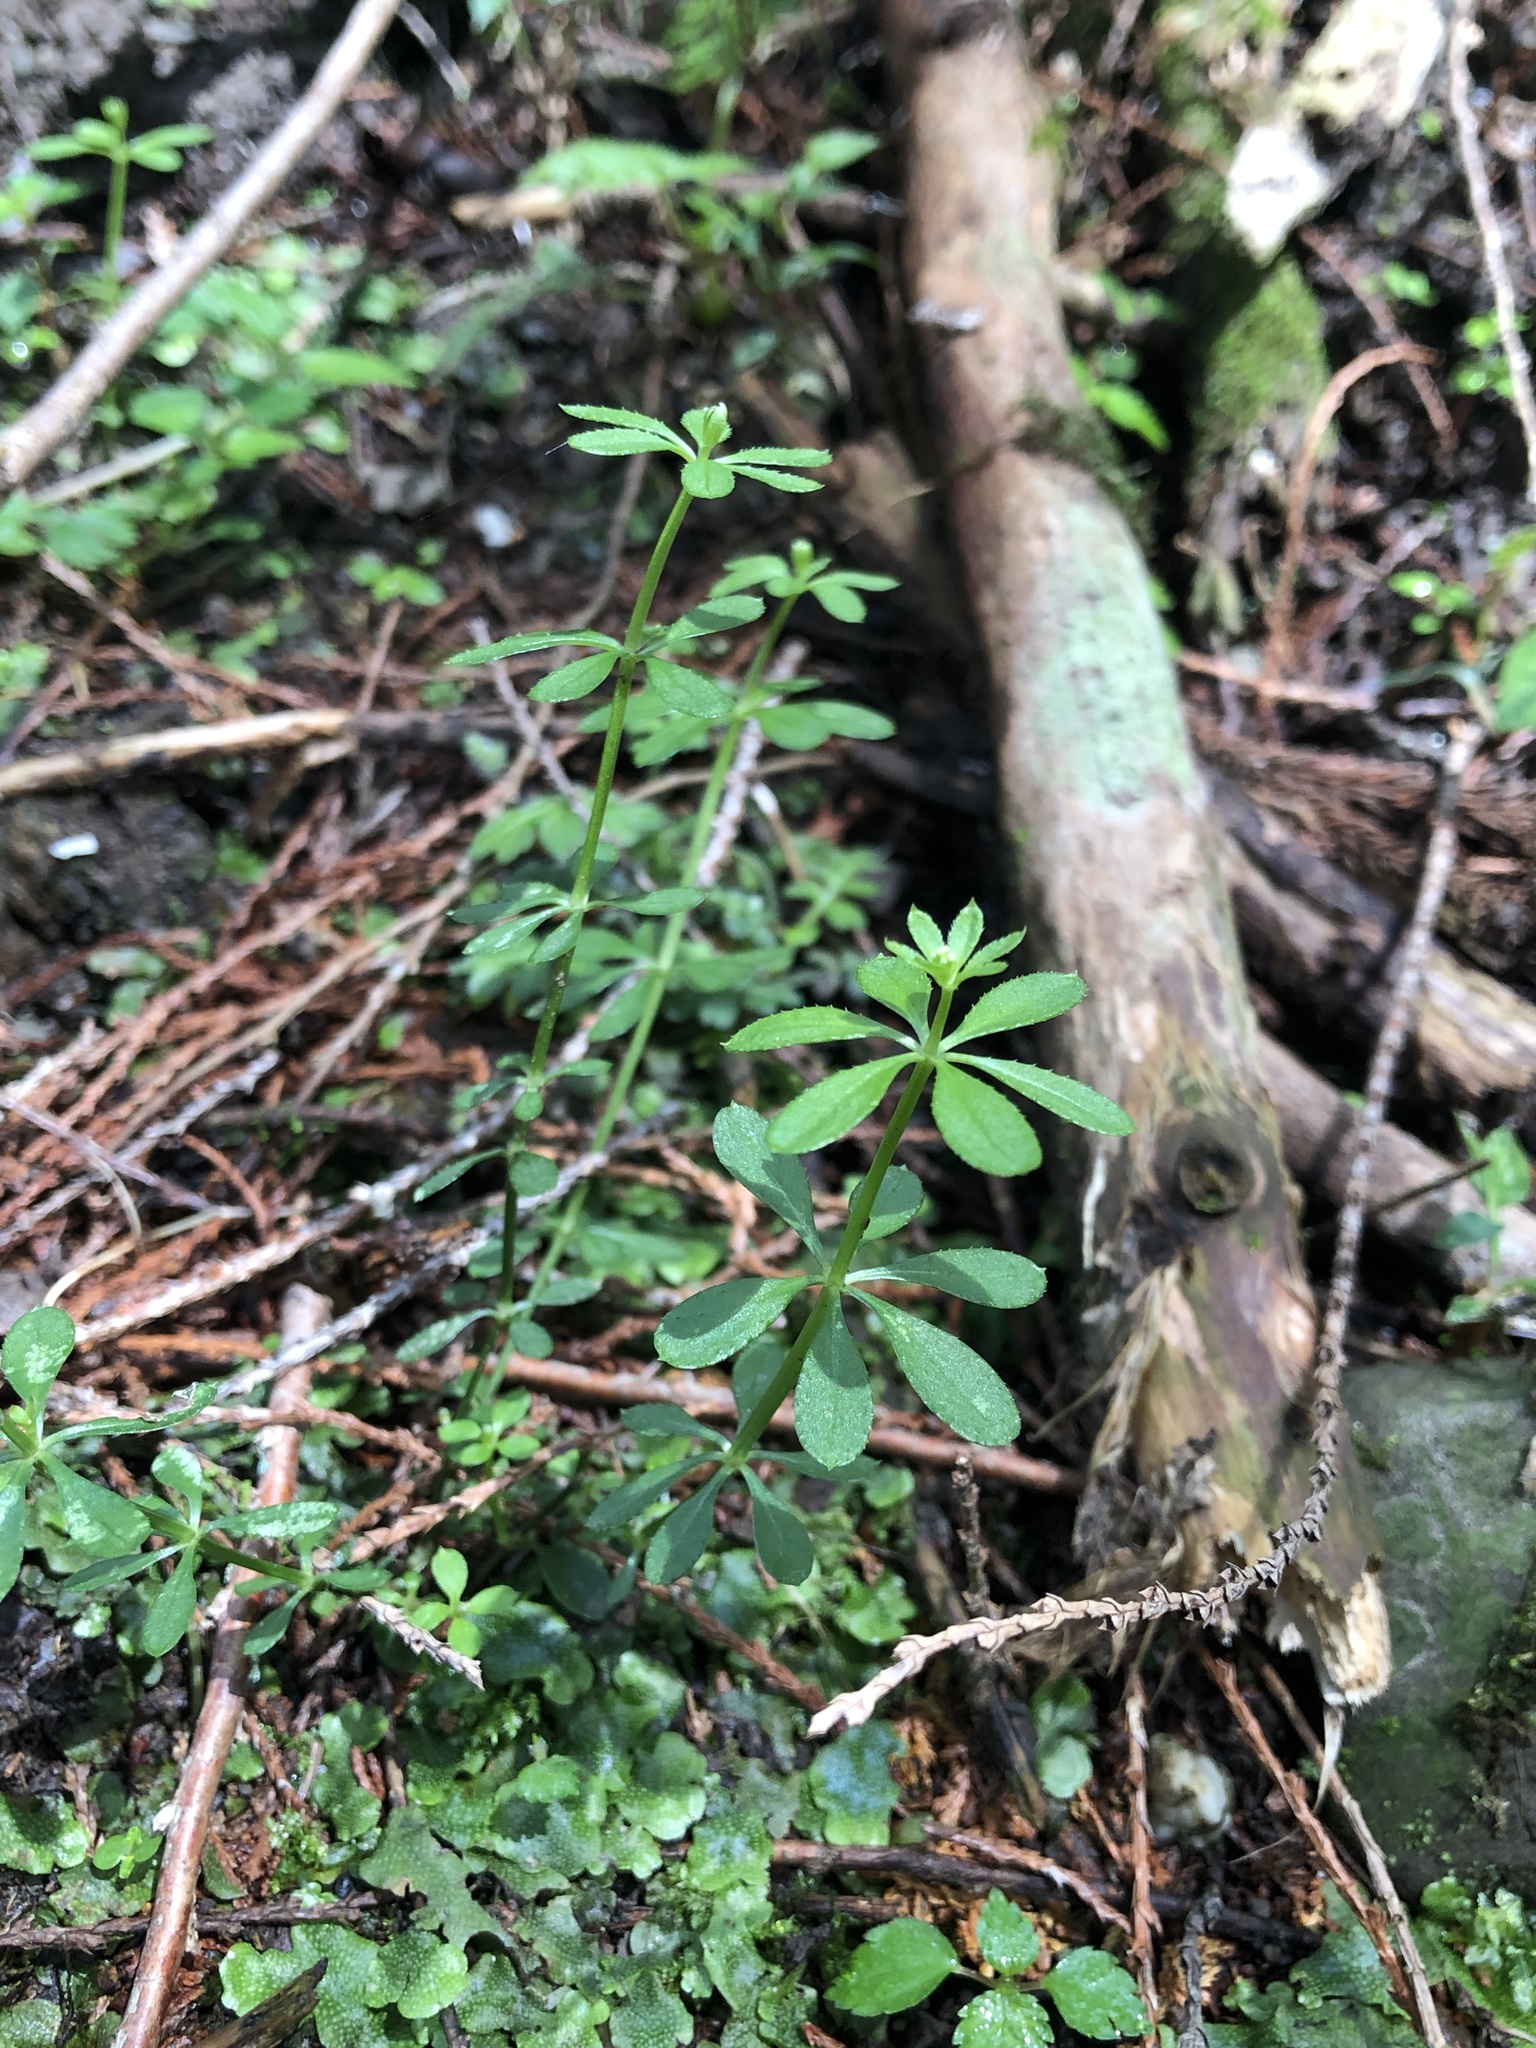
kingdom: Plantae
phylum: Tracheophyta
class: Magnoliopsida
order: Gentianales
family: Rubiaceae
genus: Galium
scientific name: Galium echinocarpum
